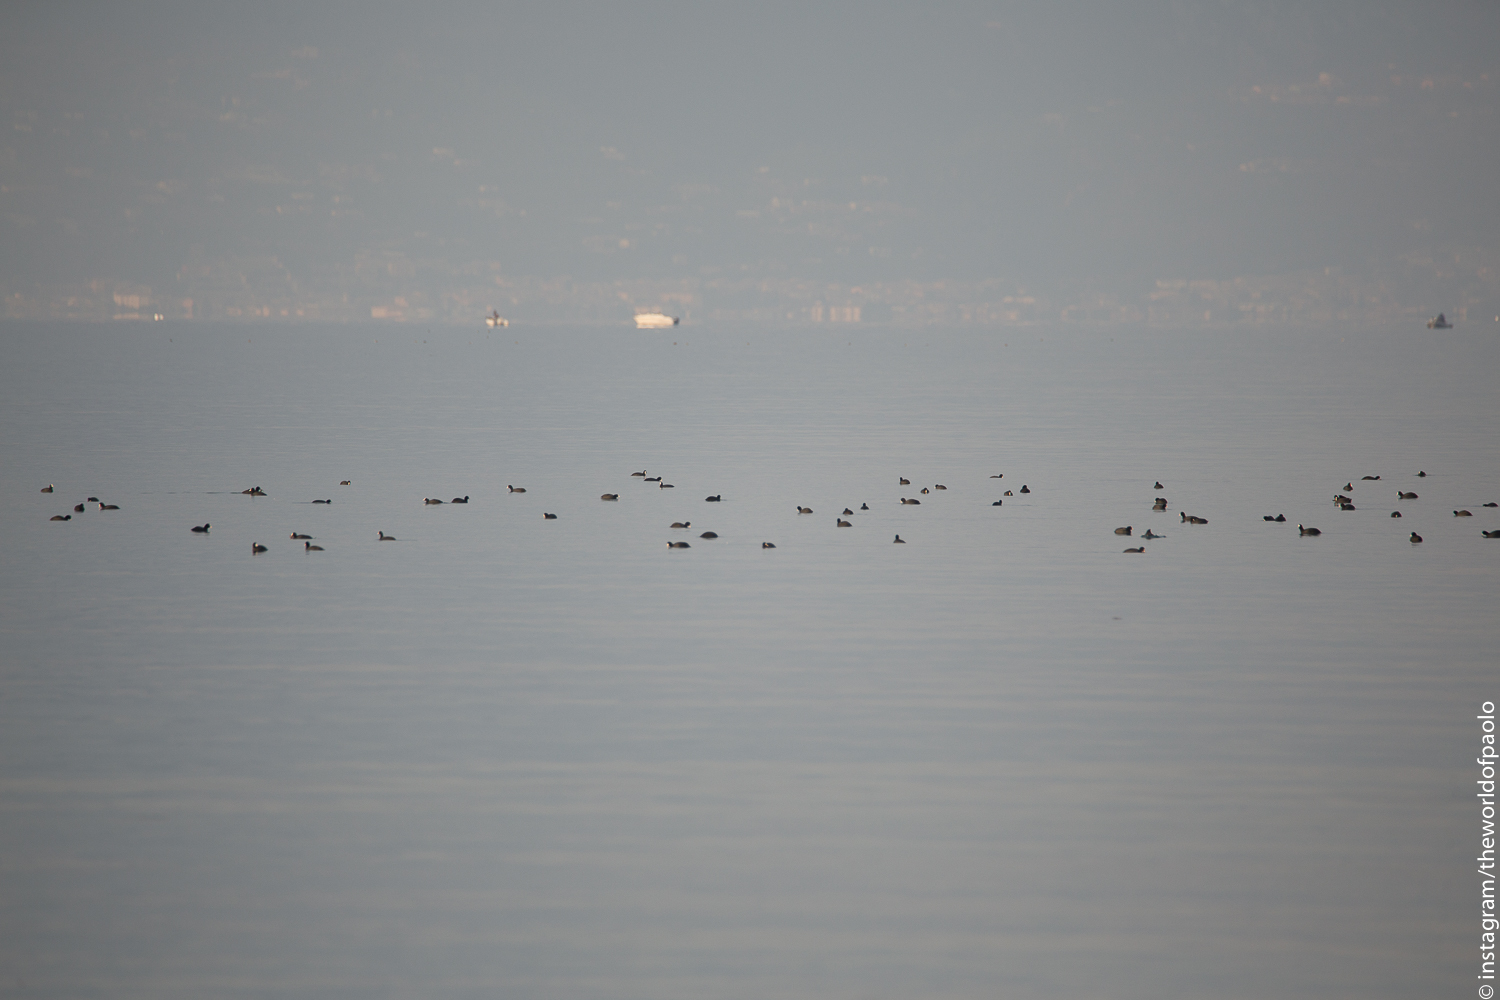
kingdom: Animalia
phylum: Chordata
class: Aves
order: Gruiformes
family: Rallidae
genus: Fulica
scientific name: Fulica atra
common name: Eurasian coot
